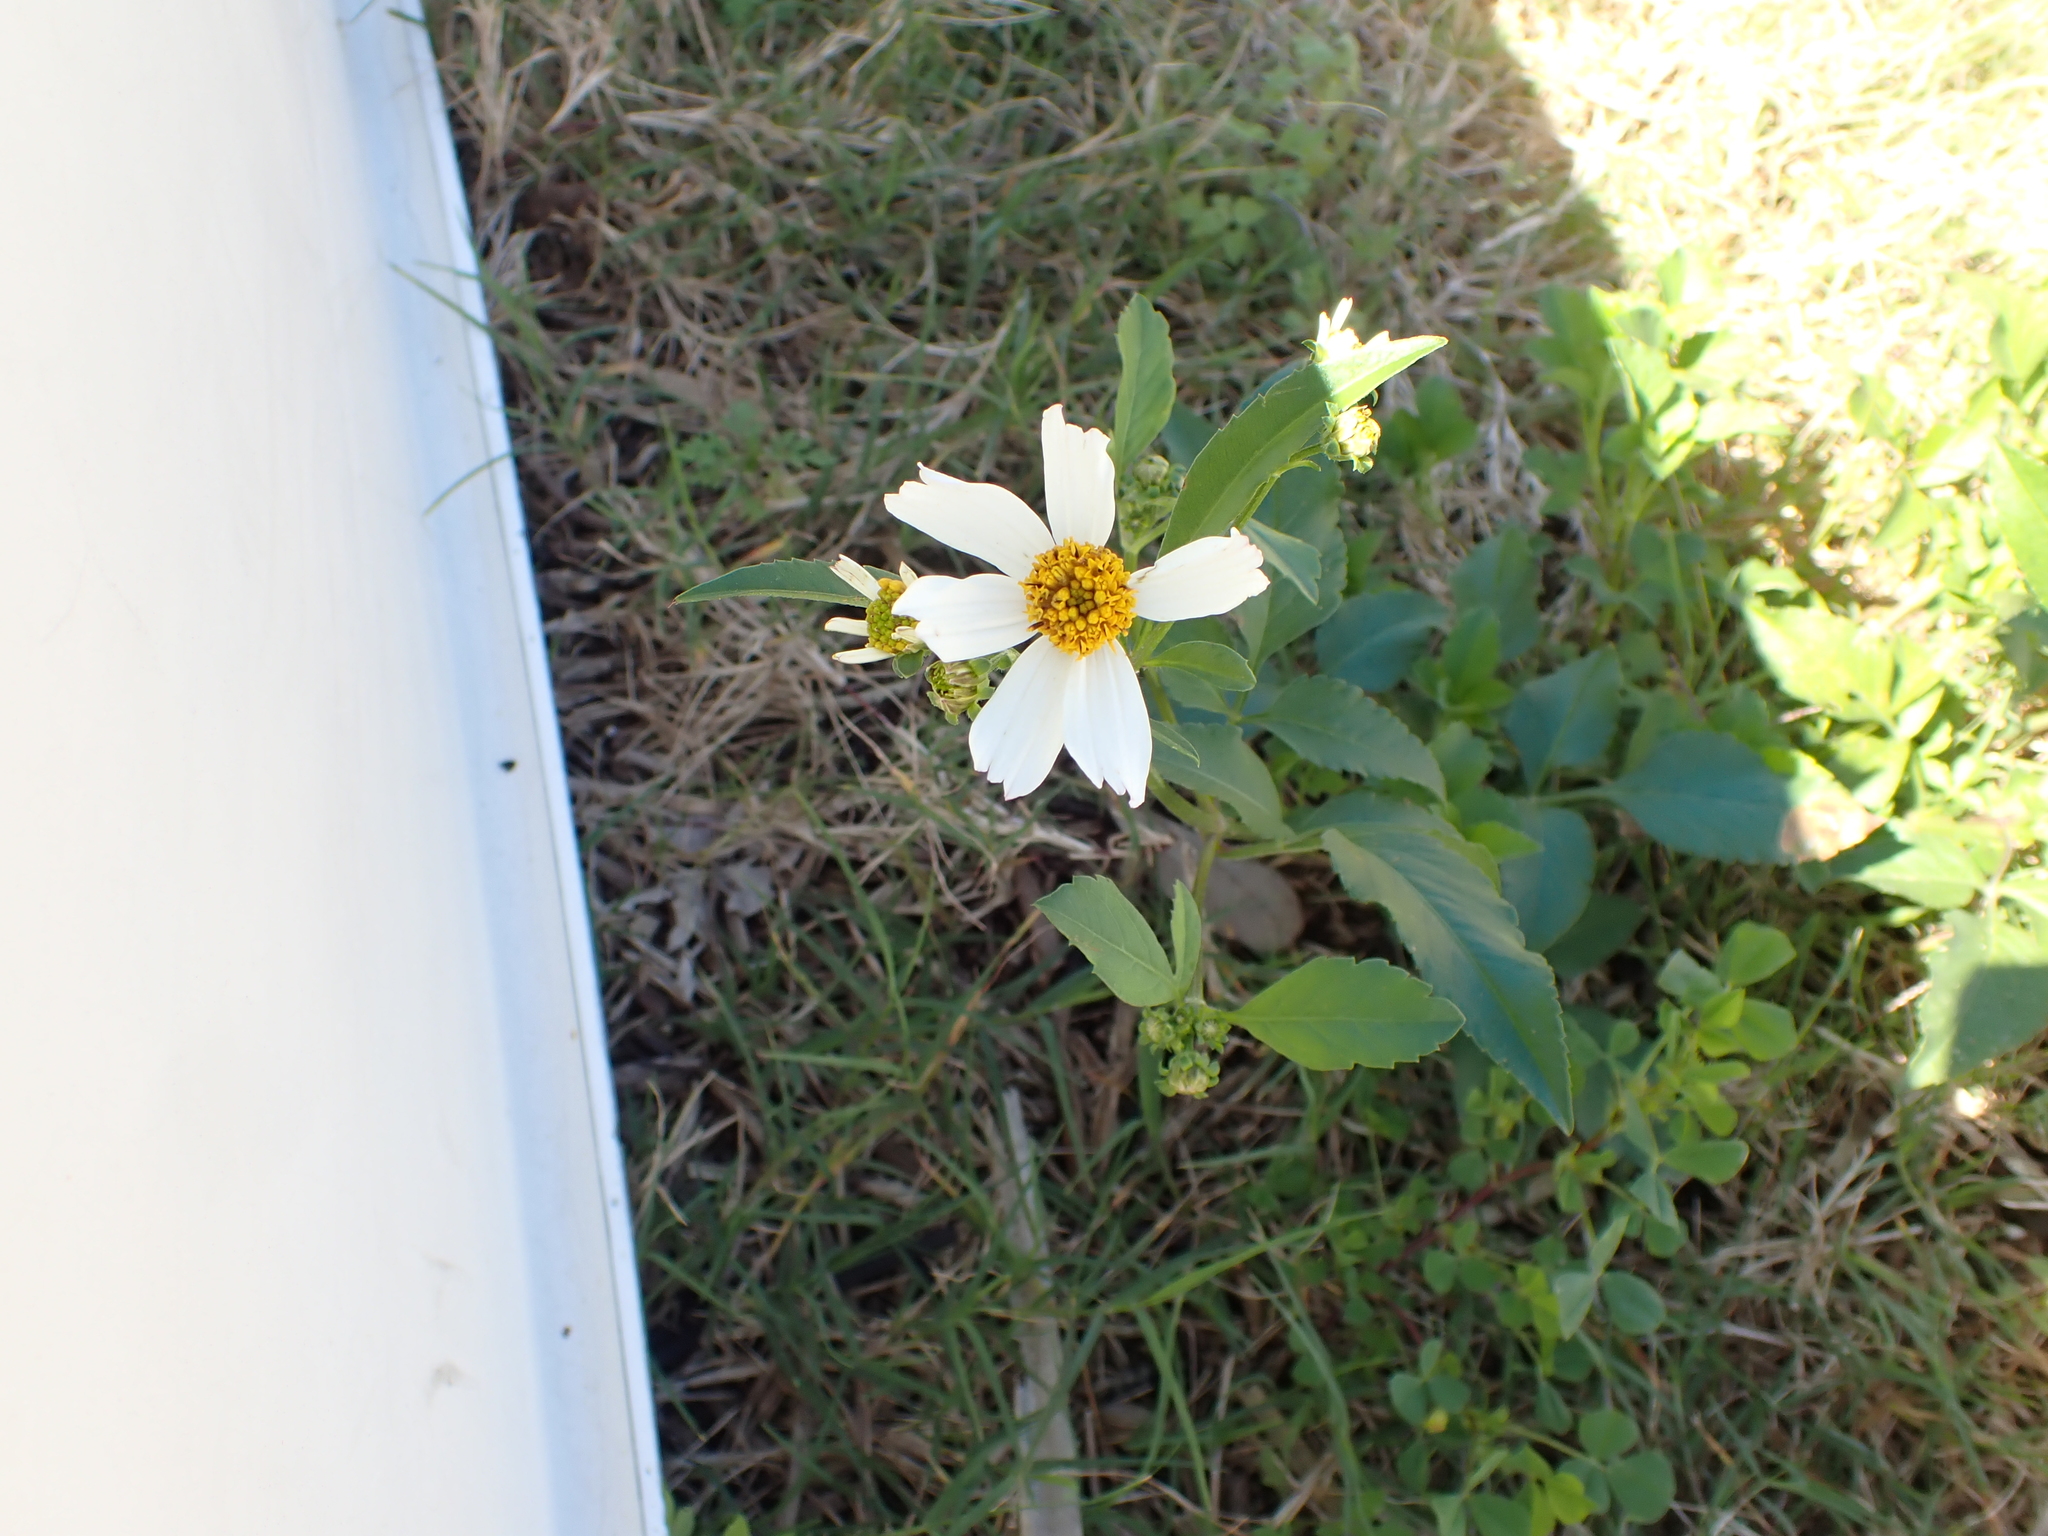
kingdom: Plantae
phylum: Tracheophyta
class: Magnoliopsida
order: Asterales
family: Asteraceae
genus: Bidens
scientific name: Bidens alba
